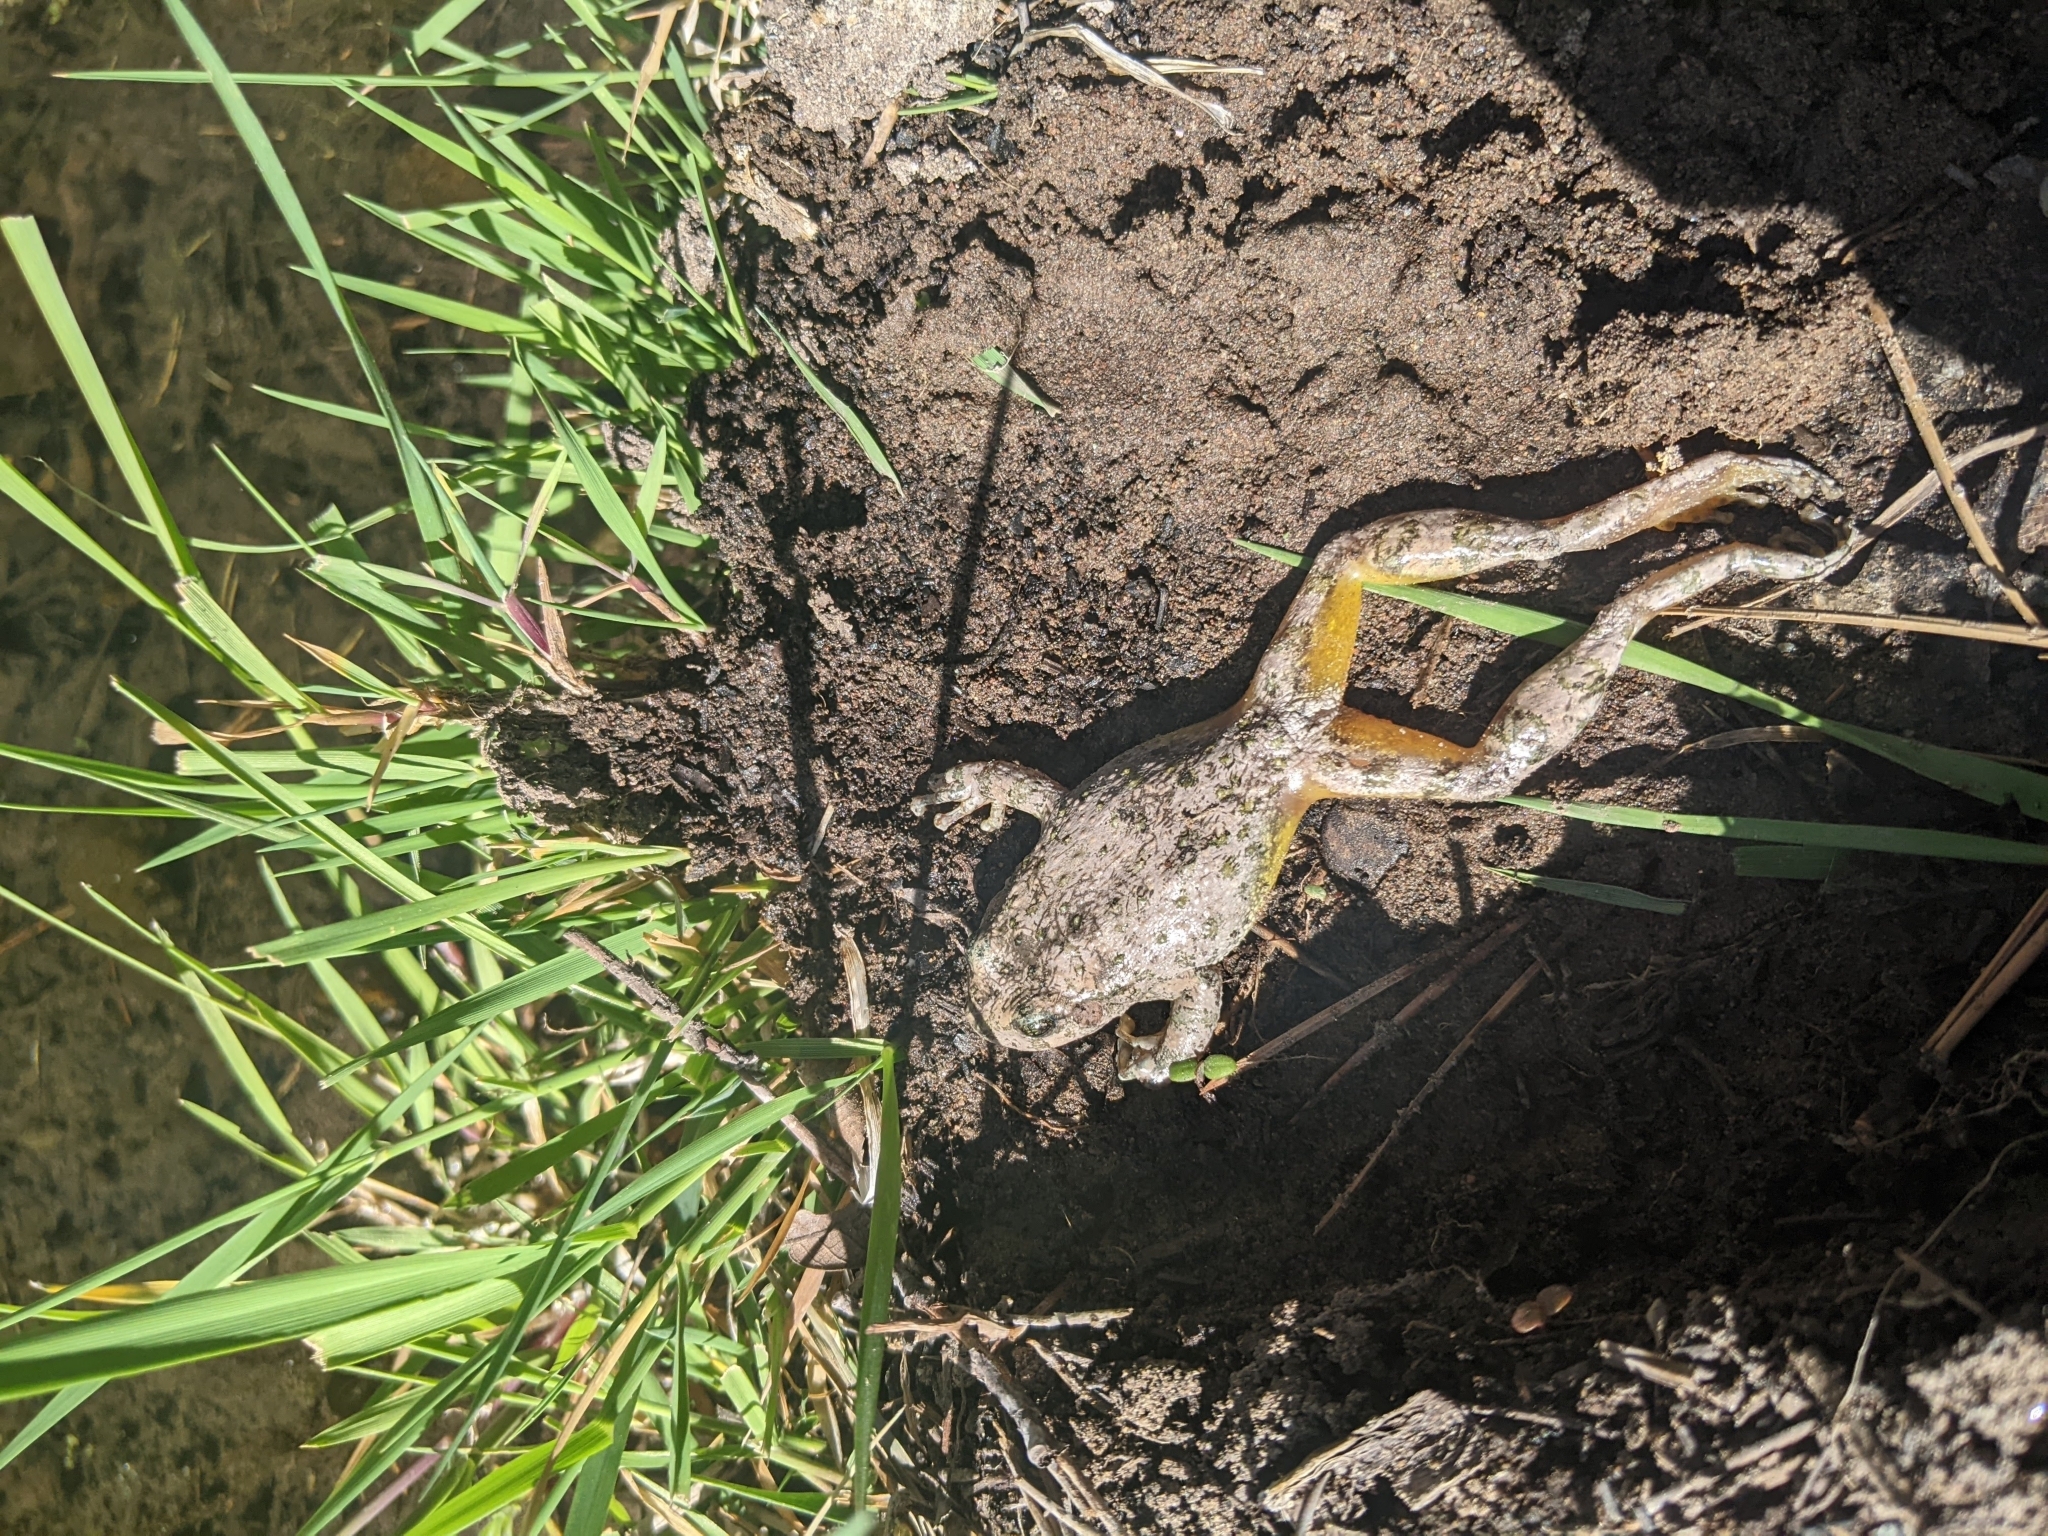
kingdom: Animalia
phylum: Chordata
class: Amphibia
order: Anura
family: Hylidae
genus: Dryophytes
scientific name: Dryophytes arenicolor
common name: Canyon treefrog
